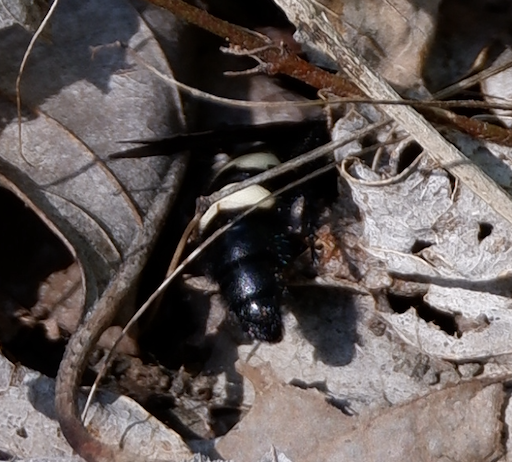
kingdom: Animalia
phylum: Arthropoda
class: Insecta
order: Hymenoptera
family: Scoliidae
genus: Scolia
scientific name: Scolia bicincta
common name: Double-banded scoliid wasp
